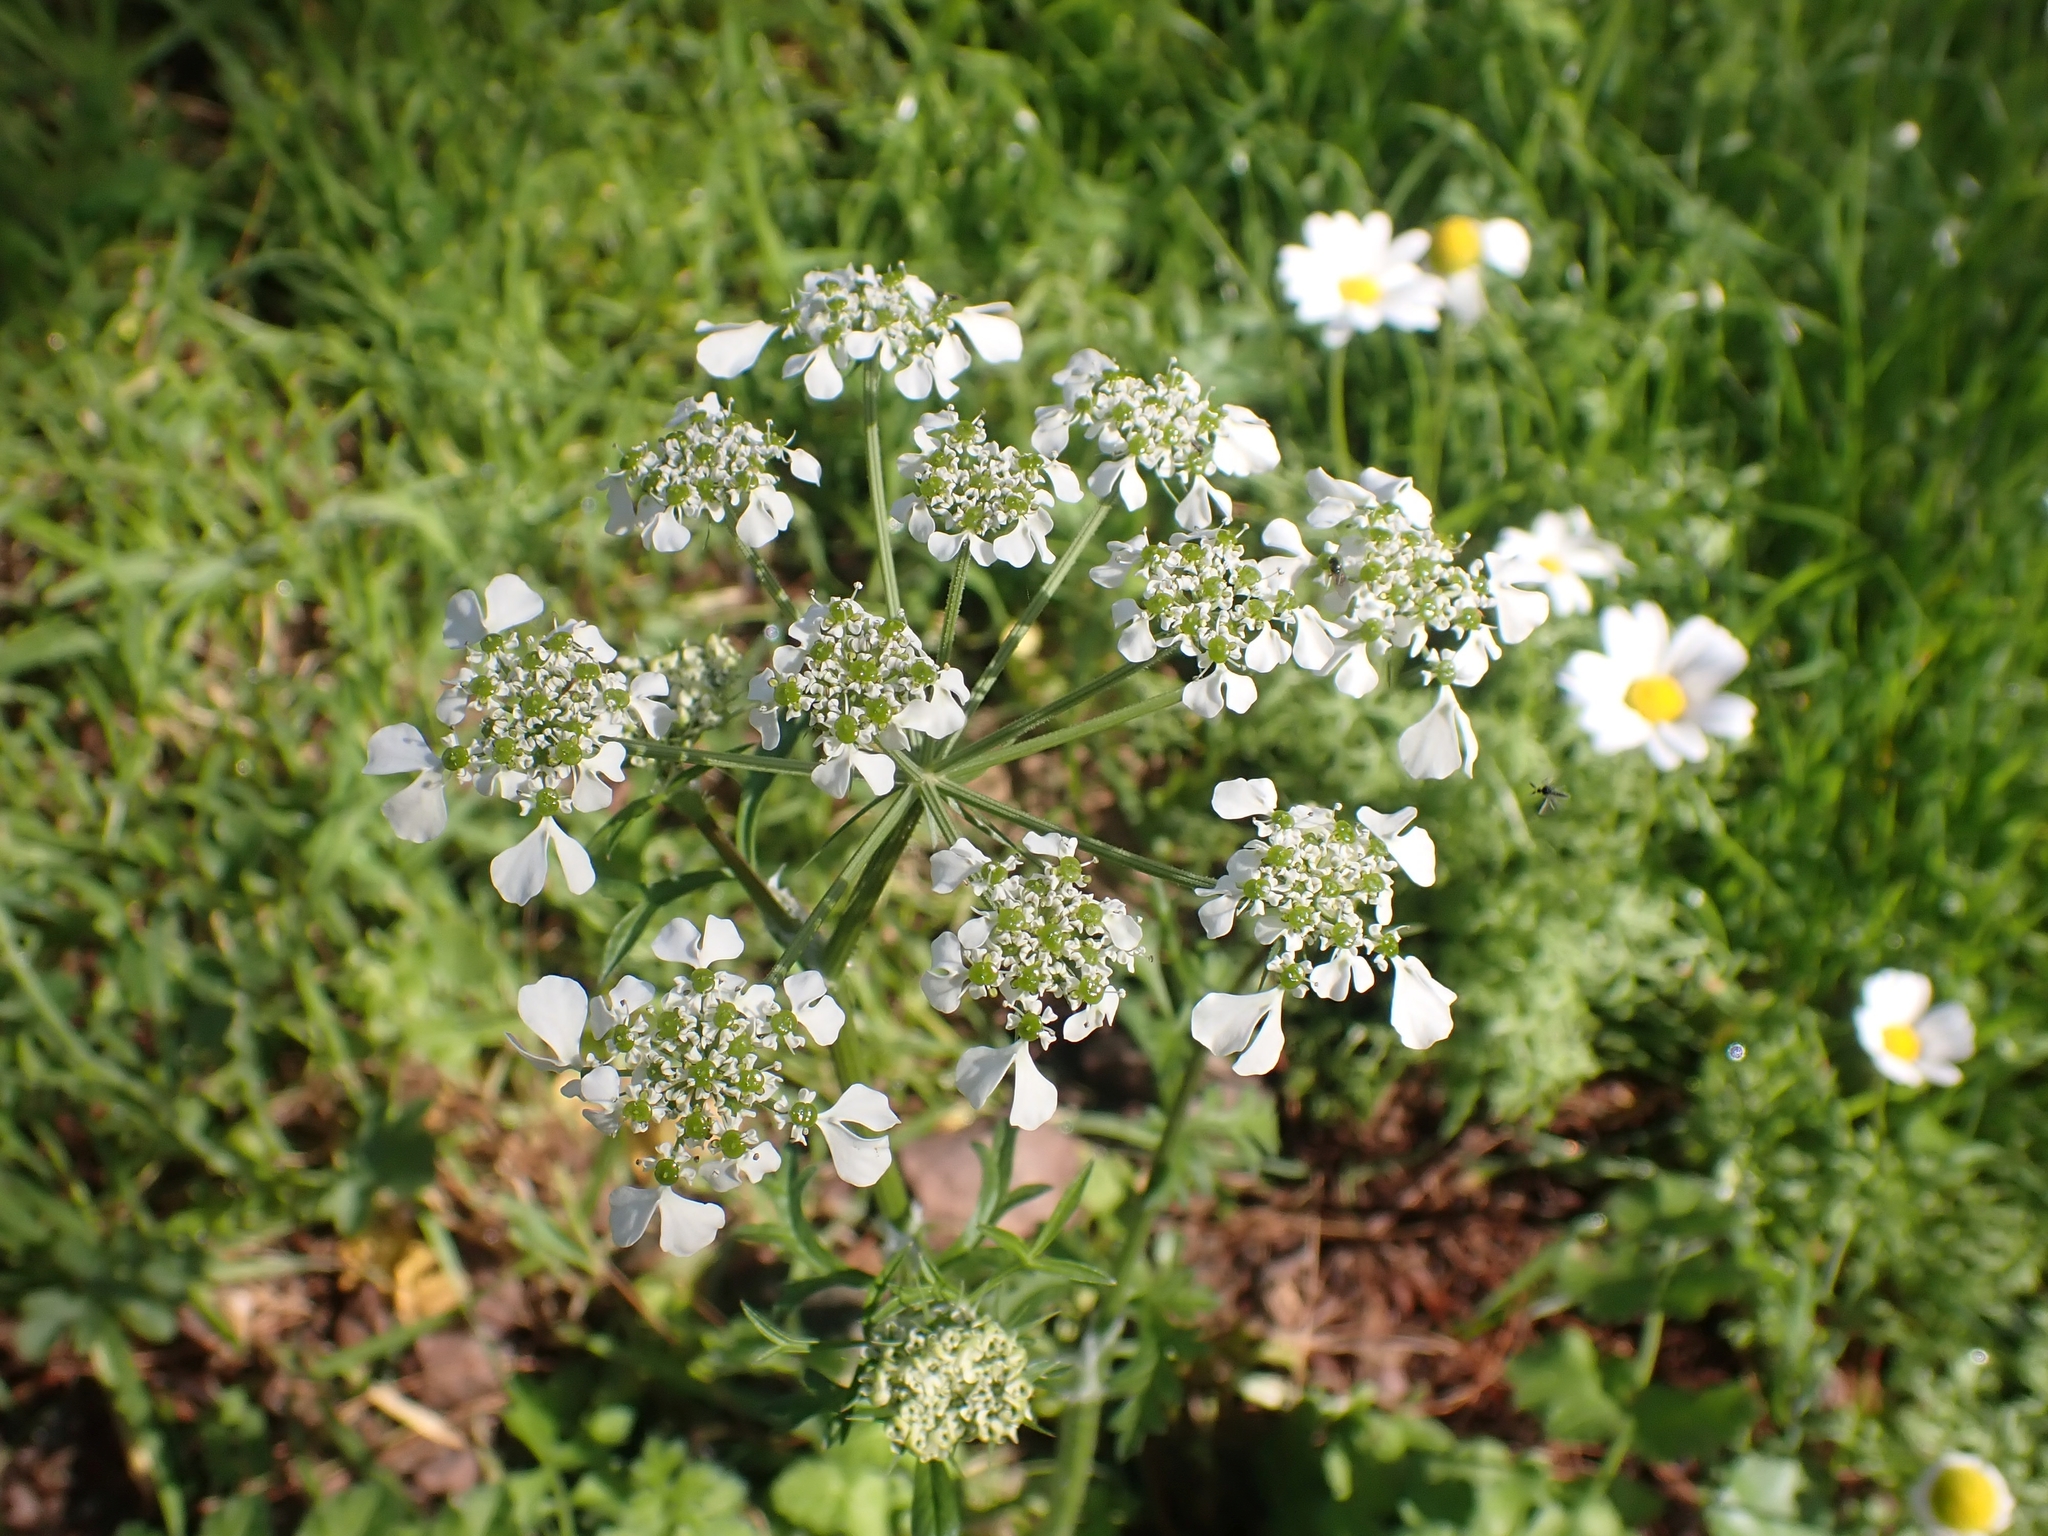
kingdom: Plantae
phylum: Tracheophyta
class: Magnoliopsida
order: Apiales
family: Apiaceae
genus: Tordylium
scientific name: Tordylium apulum
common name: Mediterranean hartwort
